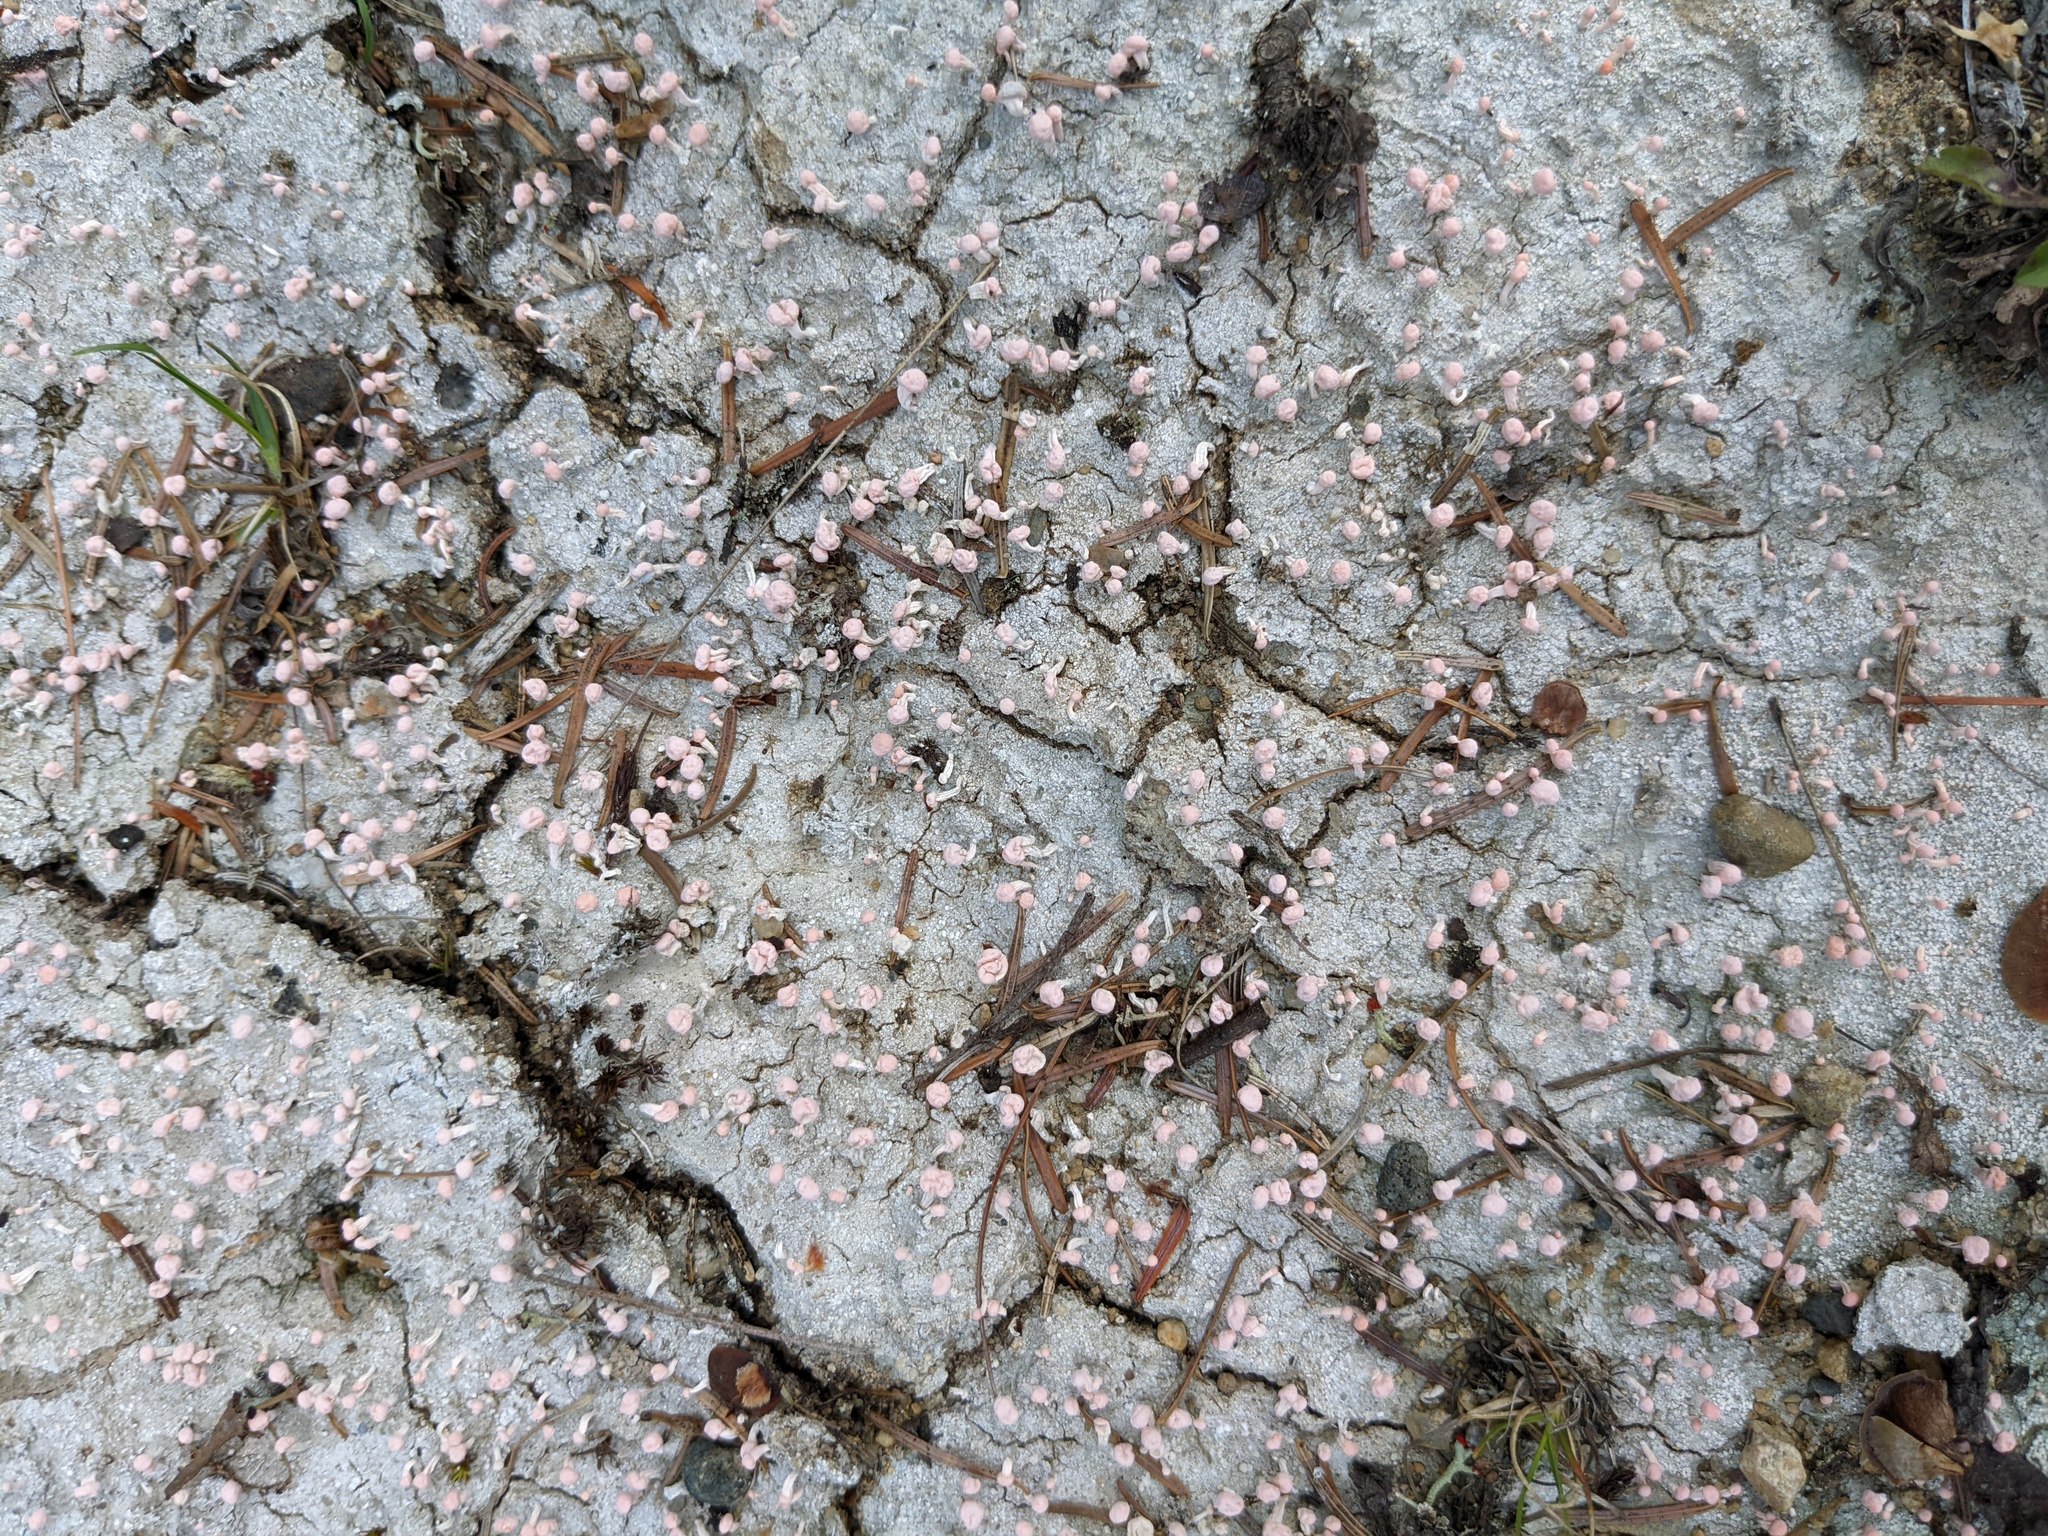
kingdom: Fungi
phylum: Ascomycota
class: Lecanoromycetes
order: Pertusariales
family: Icmadophilaceae
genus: Dibaeis
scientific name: Dibaeis baeomyces
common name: Pink earth lichen
